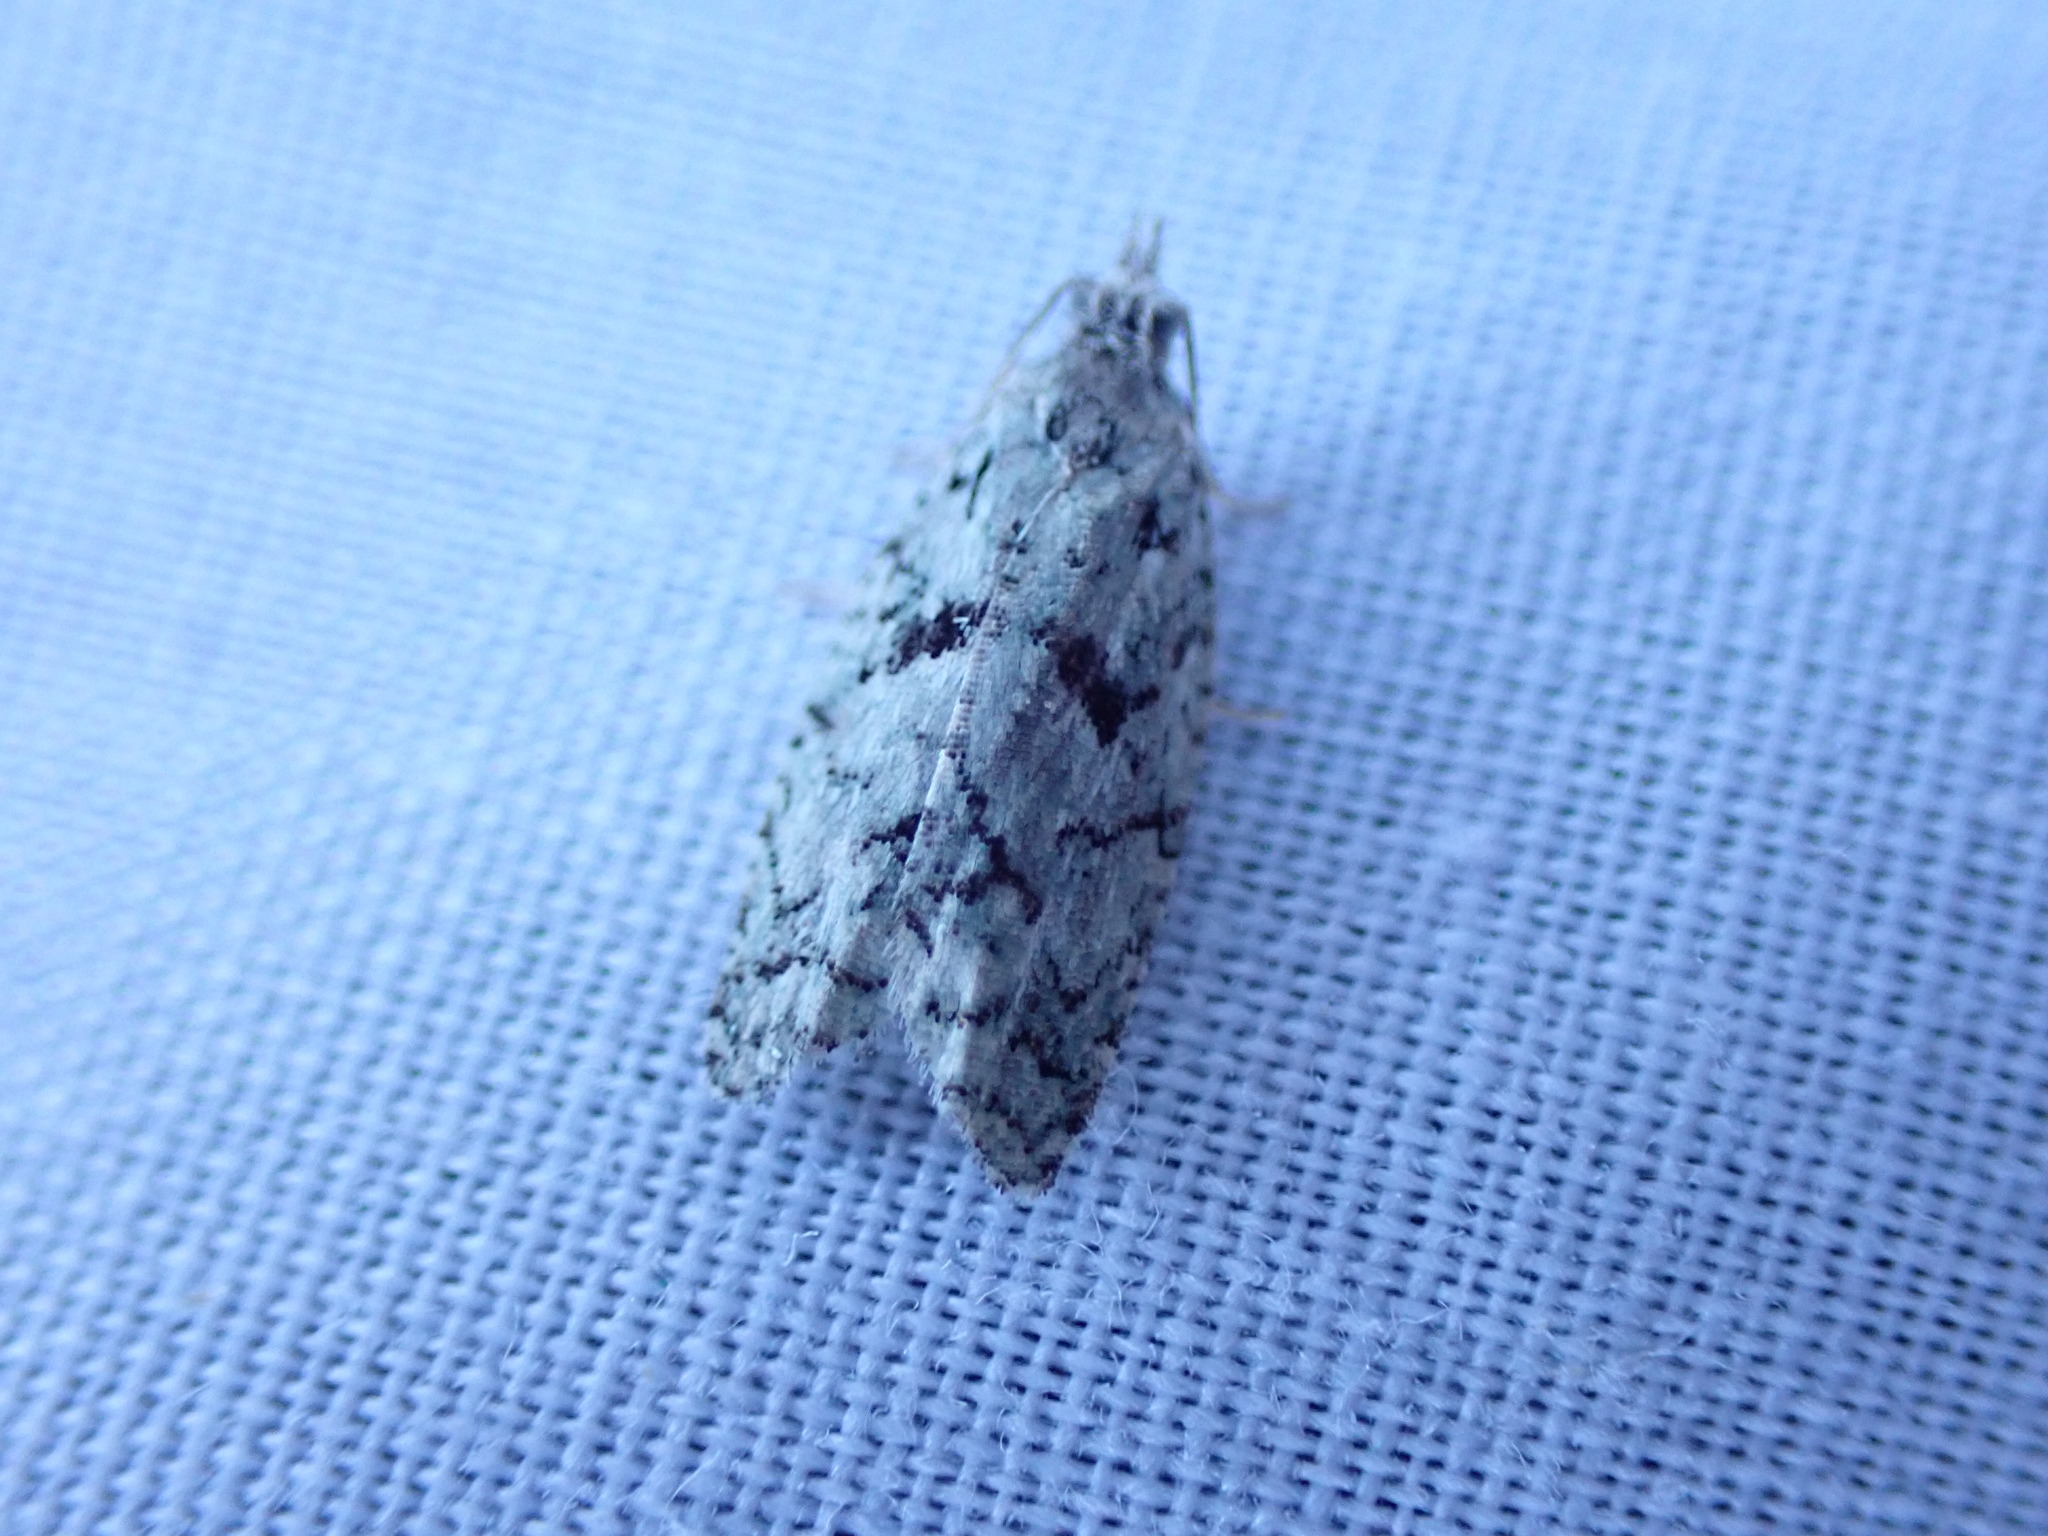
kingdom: Animalia
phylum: Arthropoda
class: Insecta
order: Lepidoptera
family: Tortricidae
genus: Epinotia
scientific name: Epinotia hopkinsana
